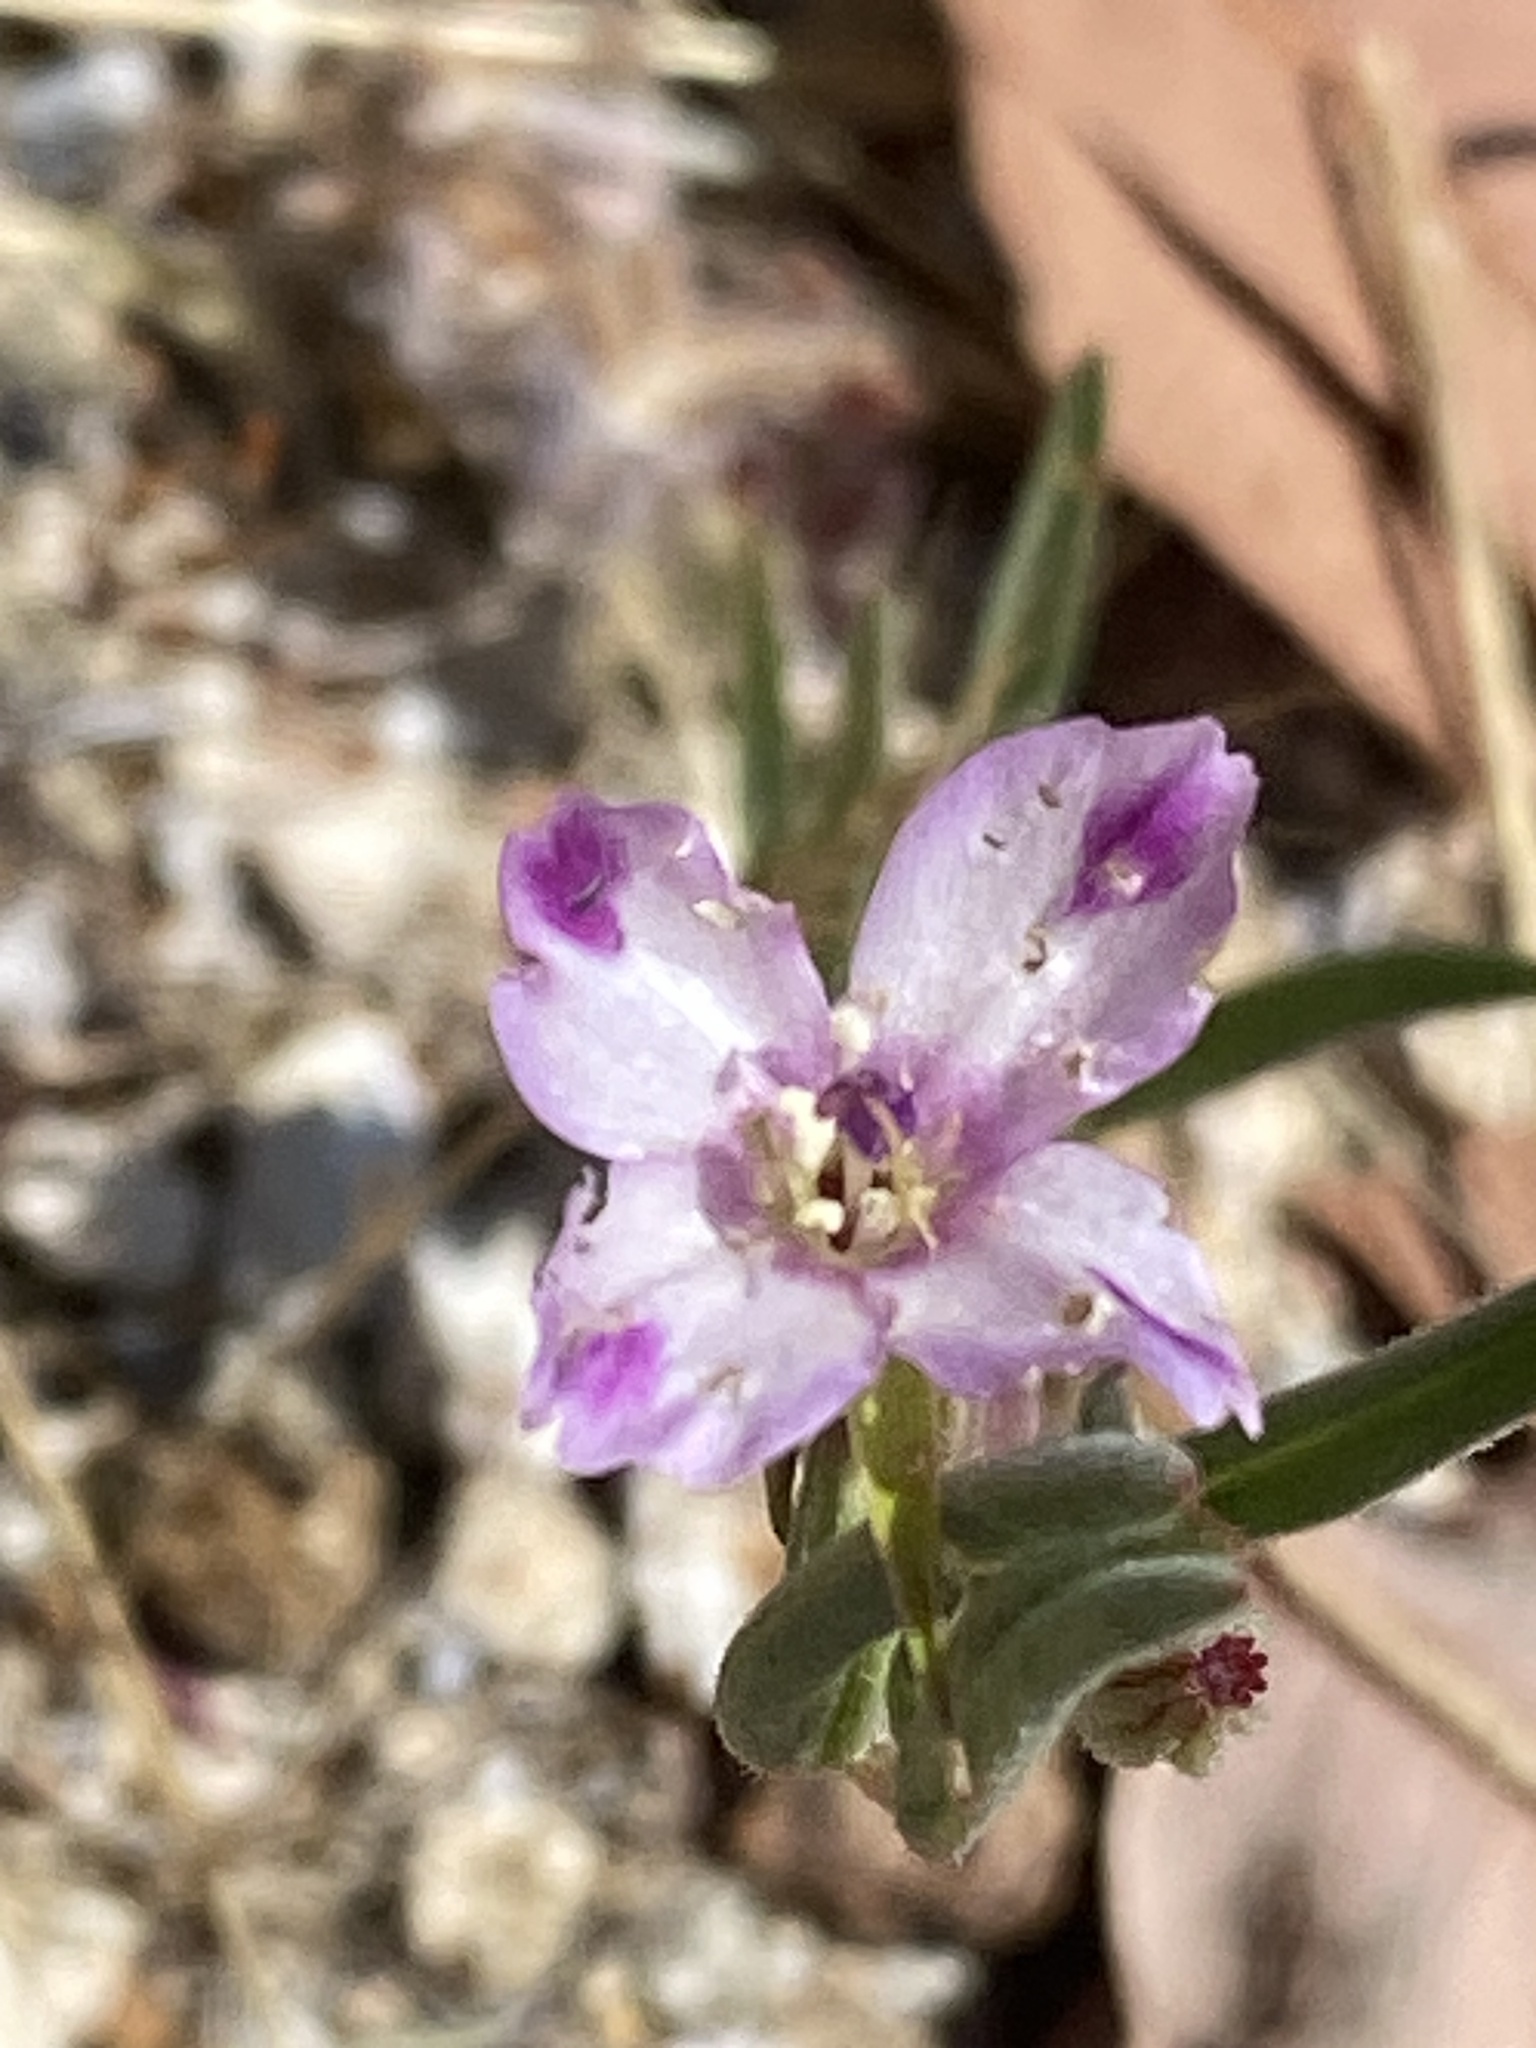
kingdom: Plantae
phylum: Tracheophyta
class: Magnoliopsida
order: Myrtales
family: Onagraceae
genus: Clarkia
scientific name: Clarkia purpurea
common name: Purple clarkia
